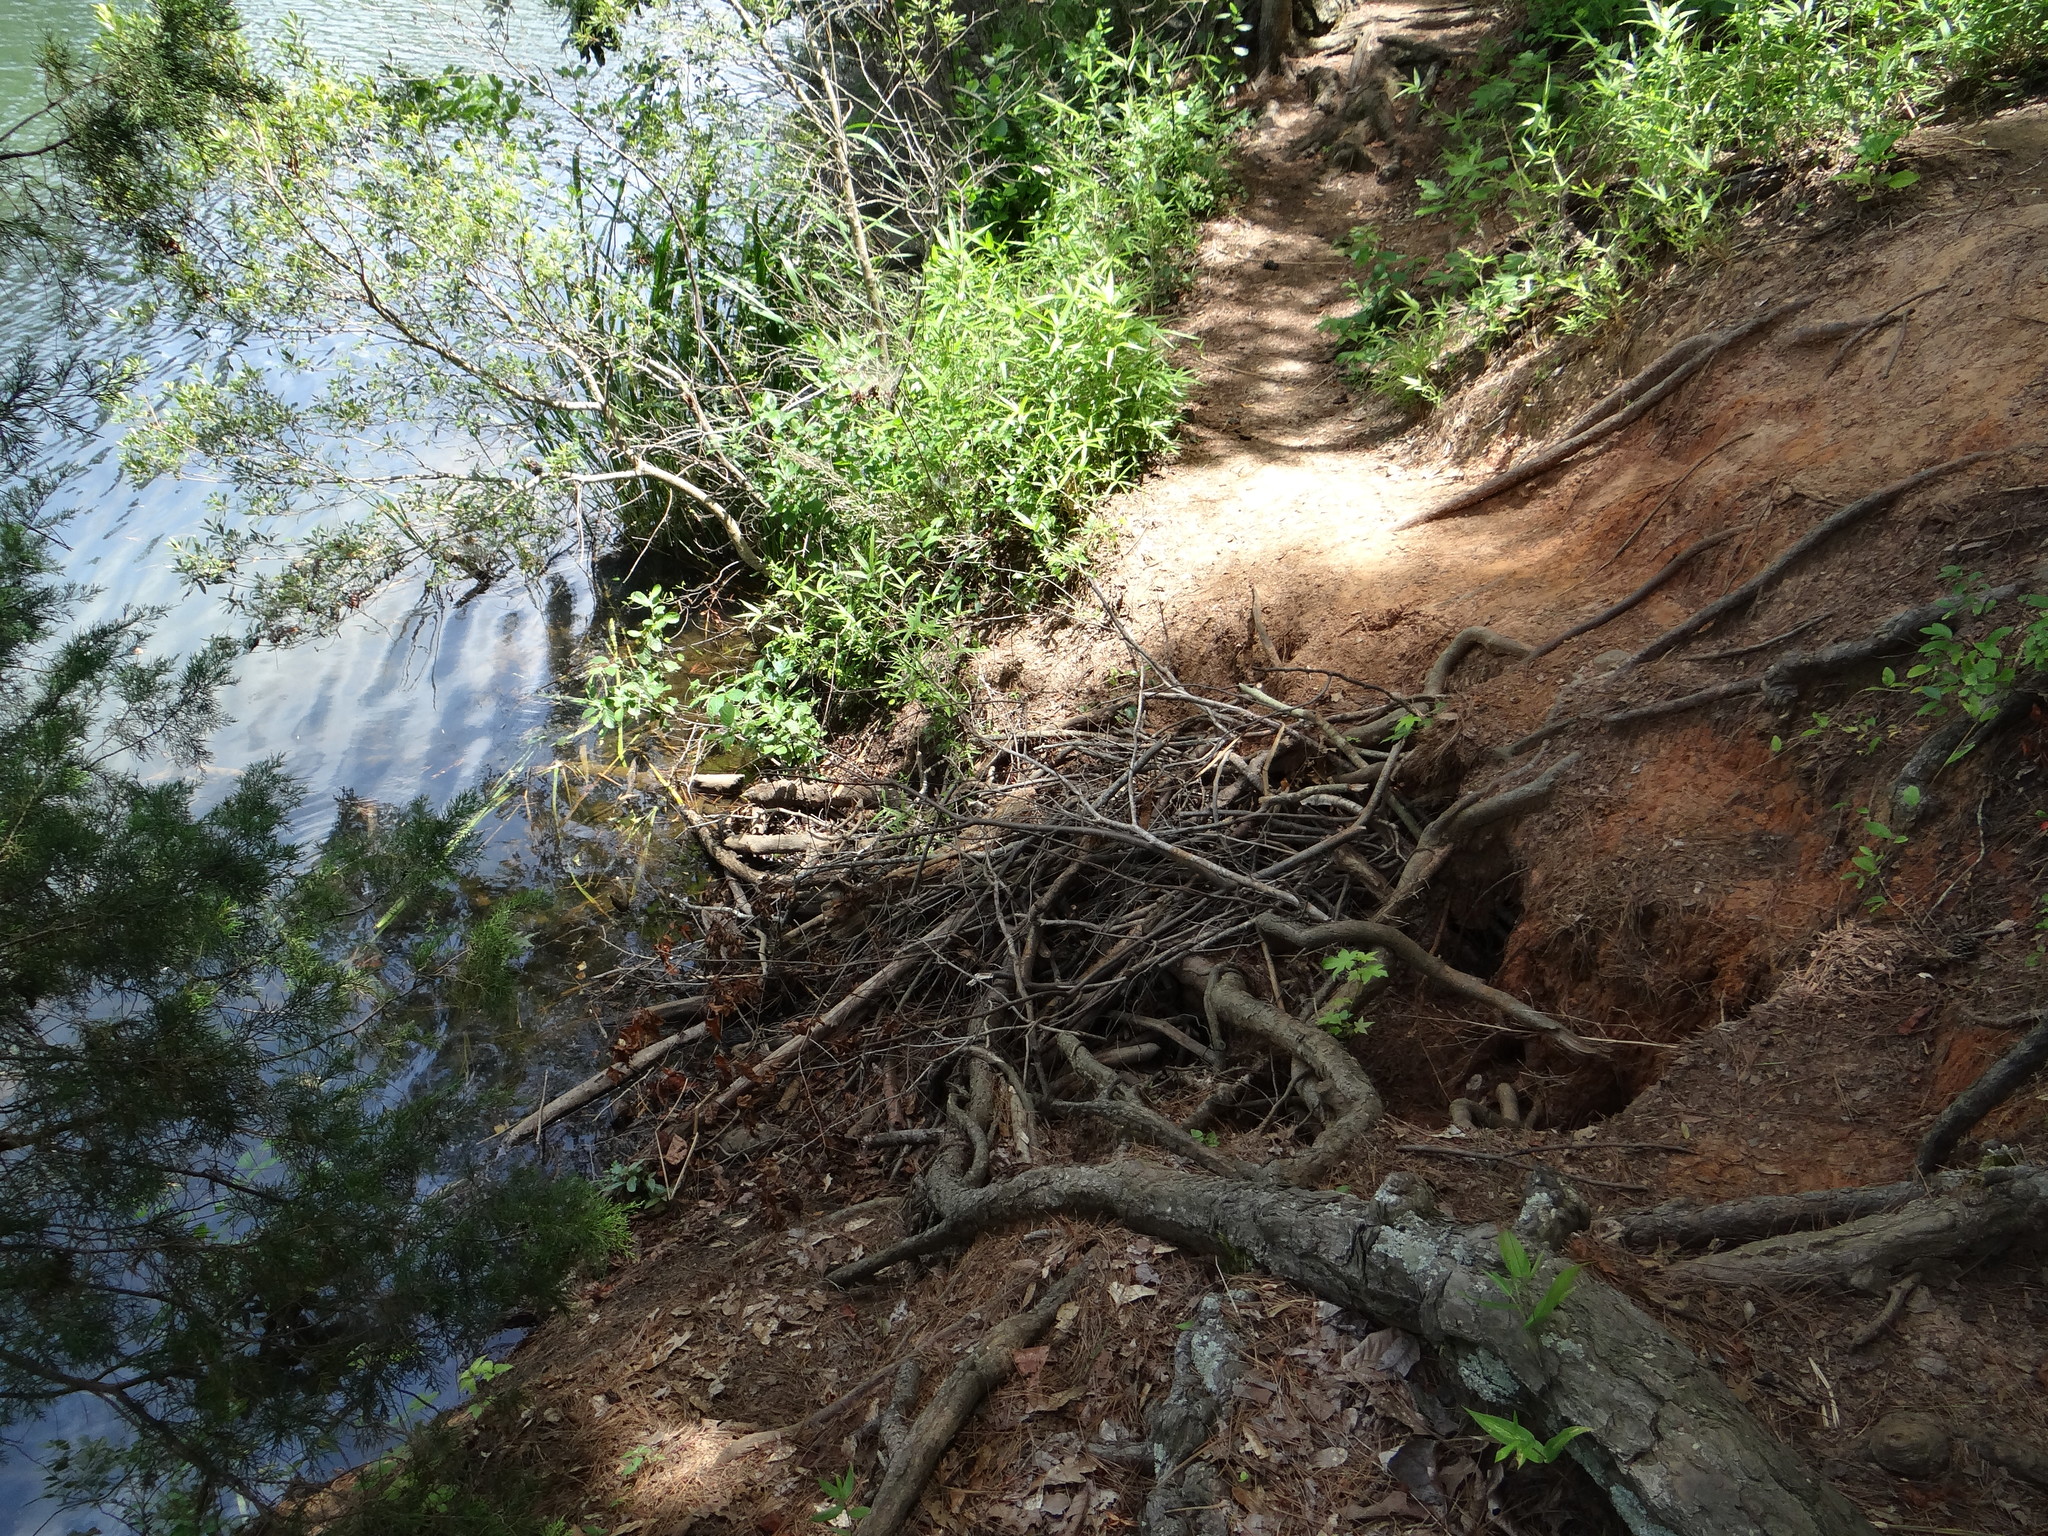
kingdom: Animalia
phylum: Chordata
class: Mammalia
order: Rodentia
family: Castoridae
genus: Castor
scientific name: Castor canadensis
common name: American beaver
